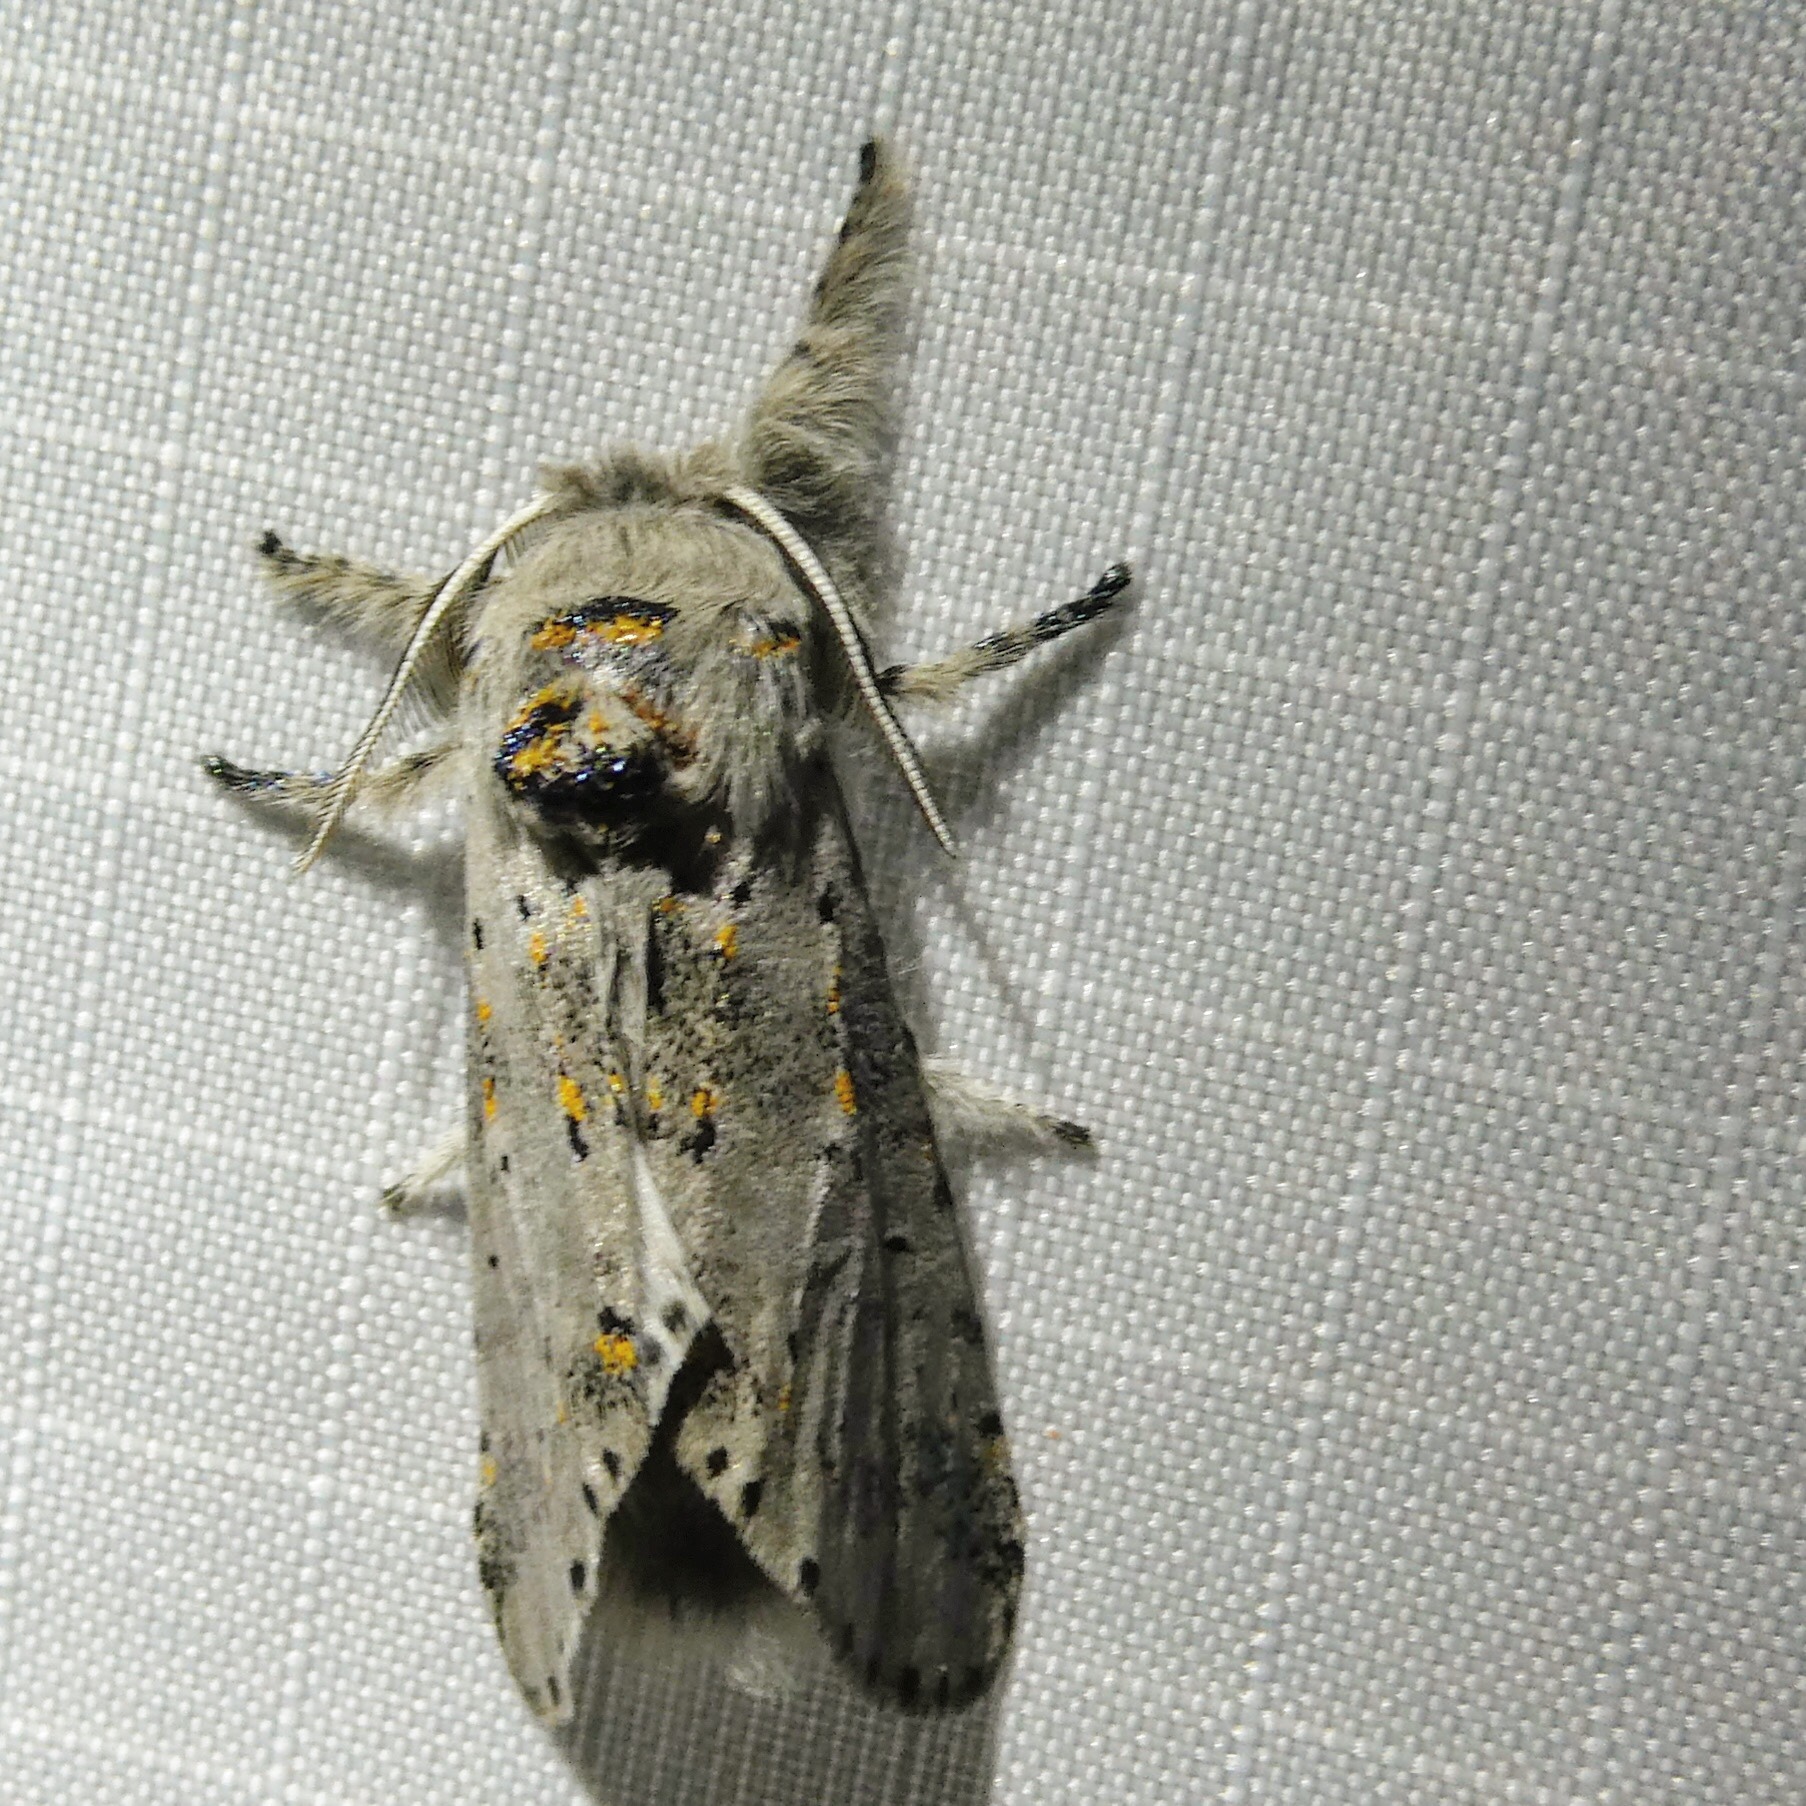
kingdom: Animalia
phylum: Arthropoda
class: Insecta
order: Lepidoptera
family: Notodontidae
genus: Furcula
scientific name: Furcula cinerea
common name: Gray furcula
